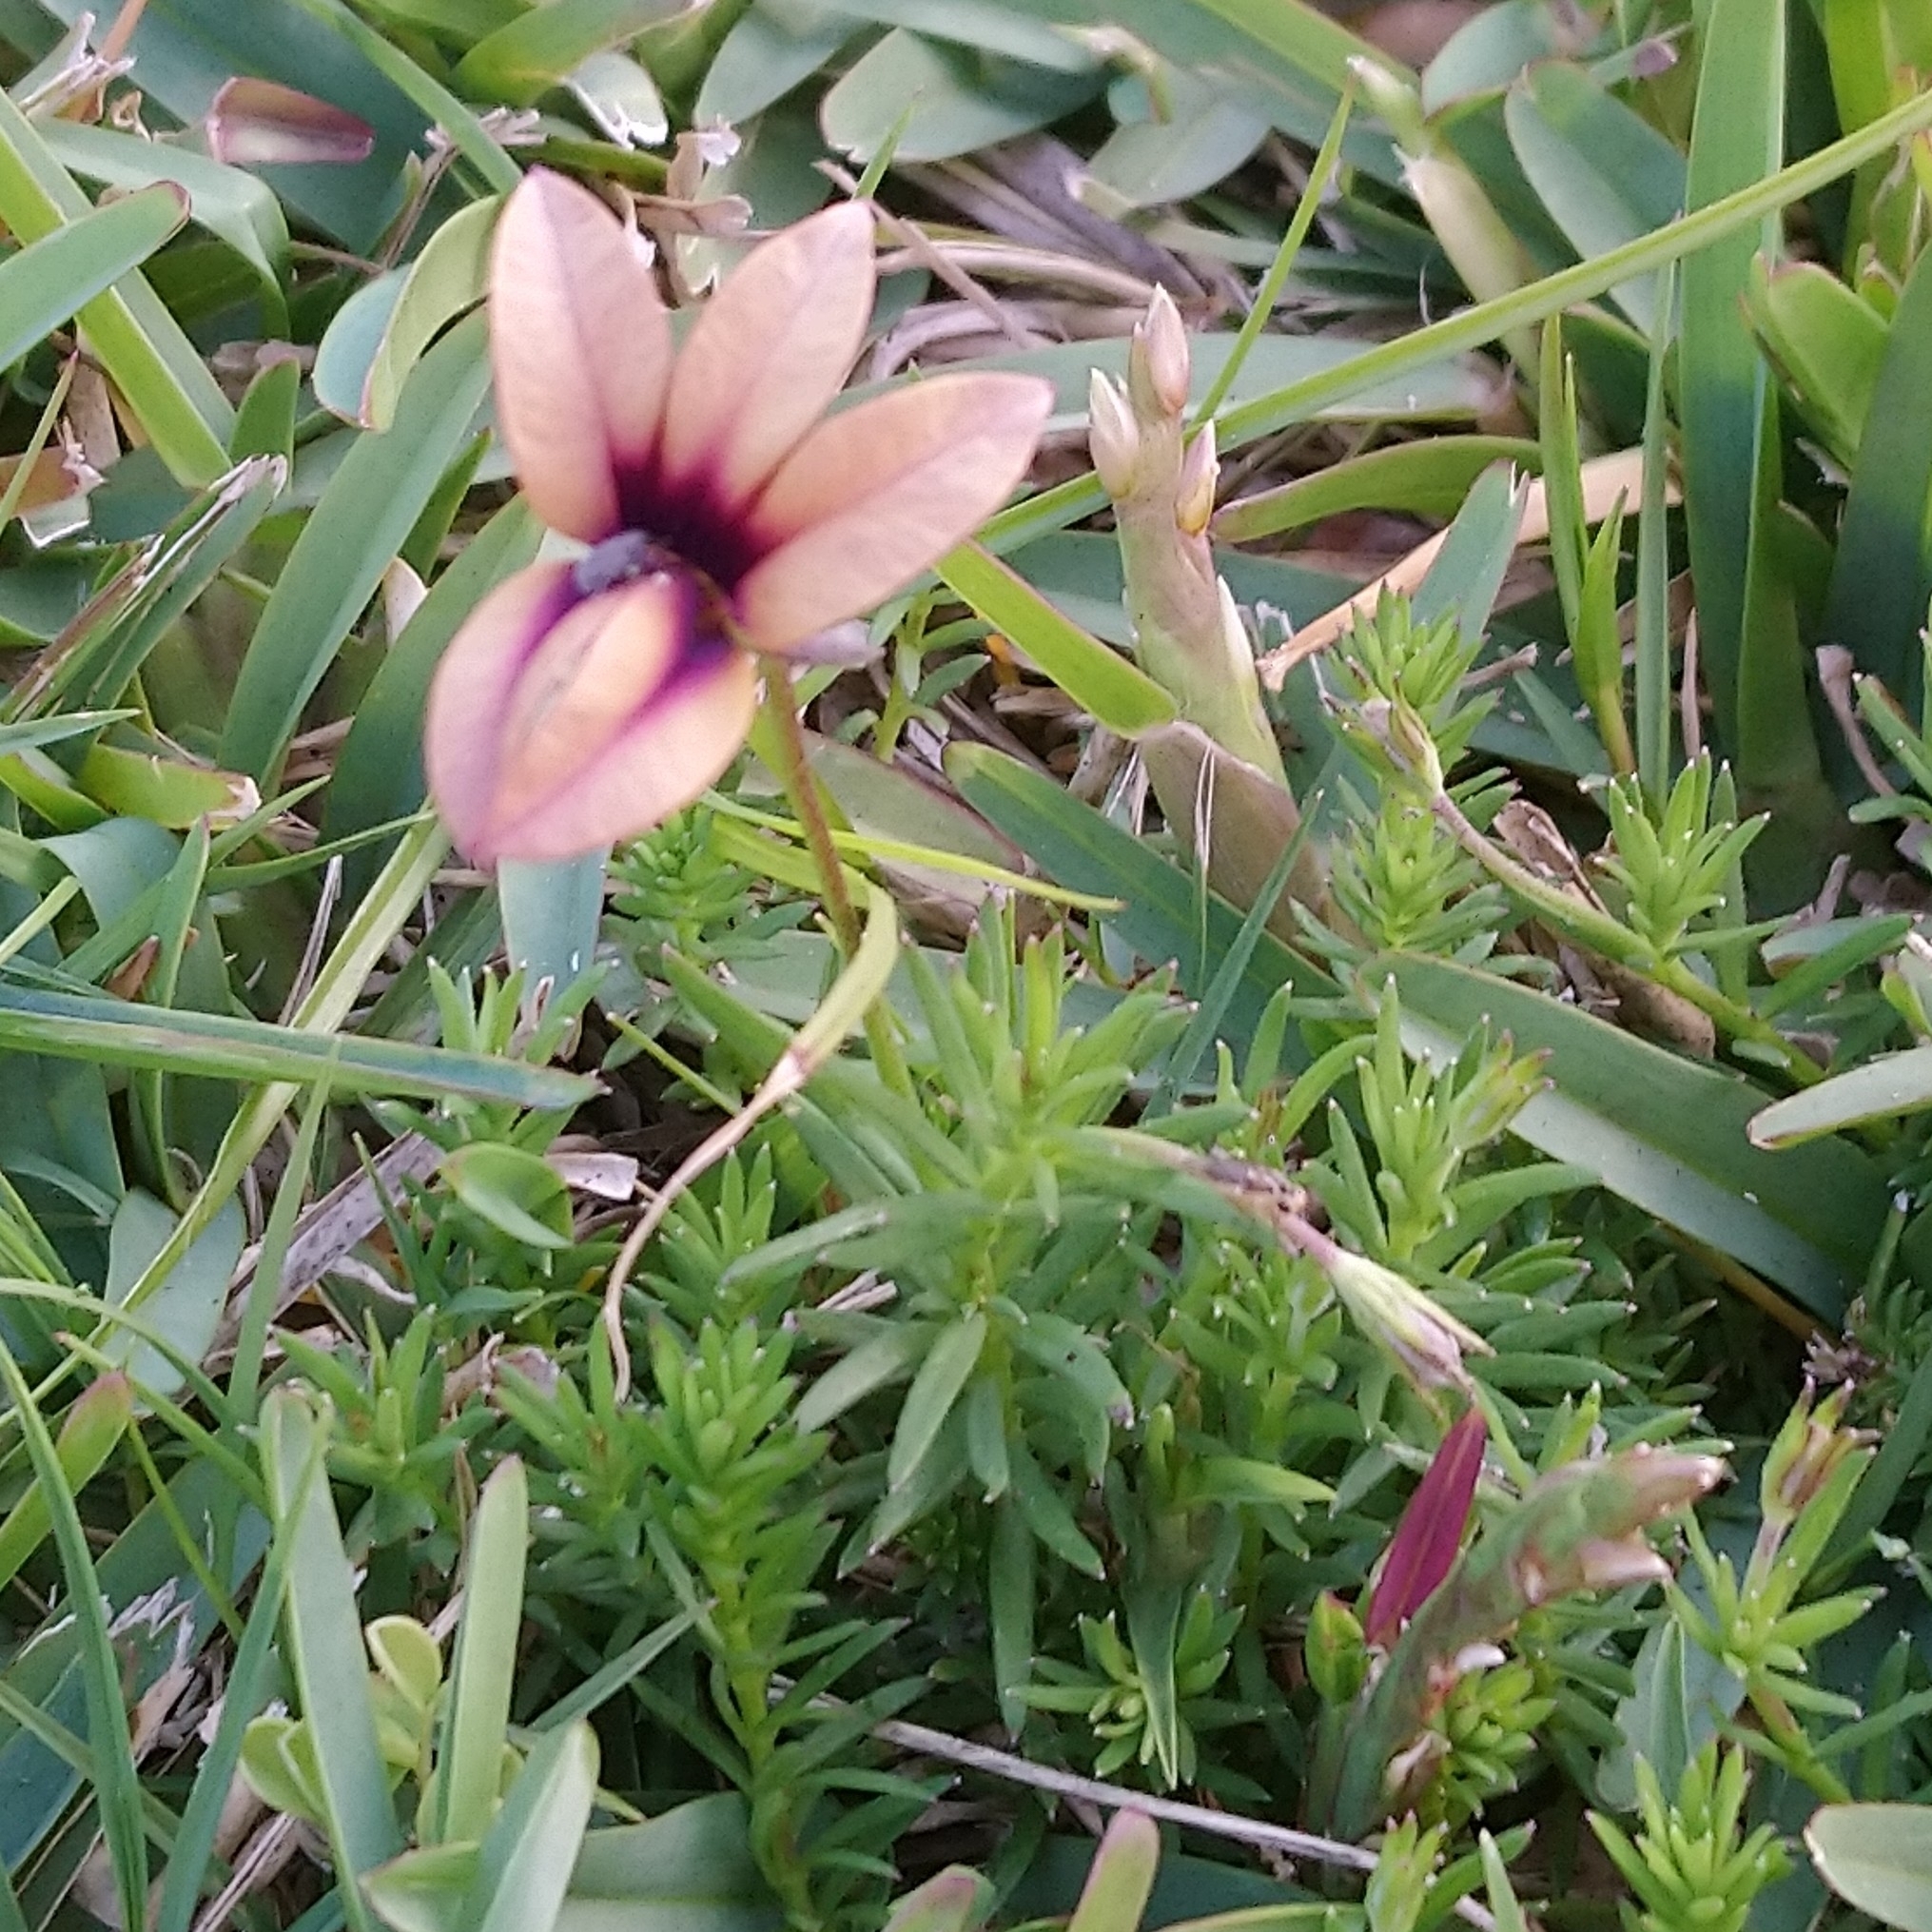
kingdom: Plantae
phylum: Tracheophyta
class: Magnoliopsida
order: Asterales
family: Campanulaceae
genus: Monopsis
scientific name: Monopsis unidentata
